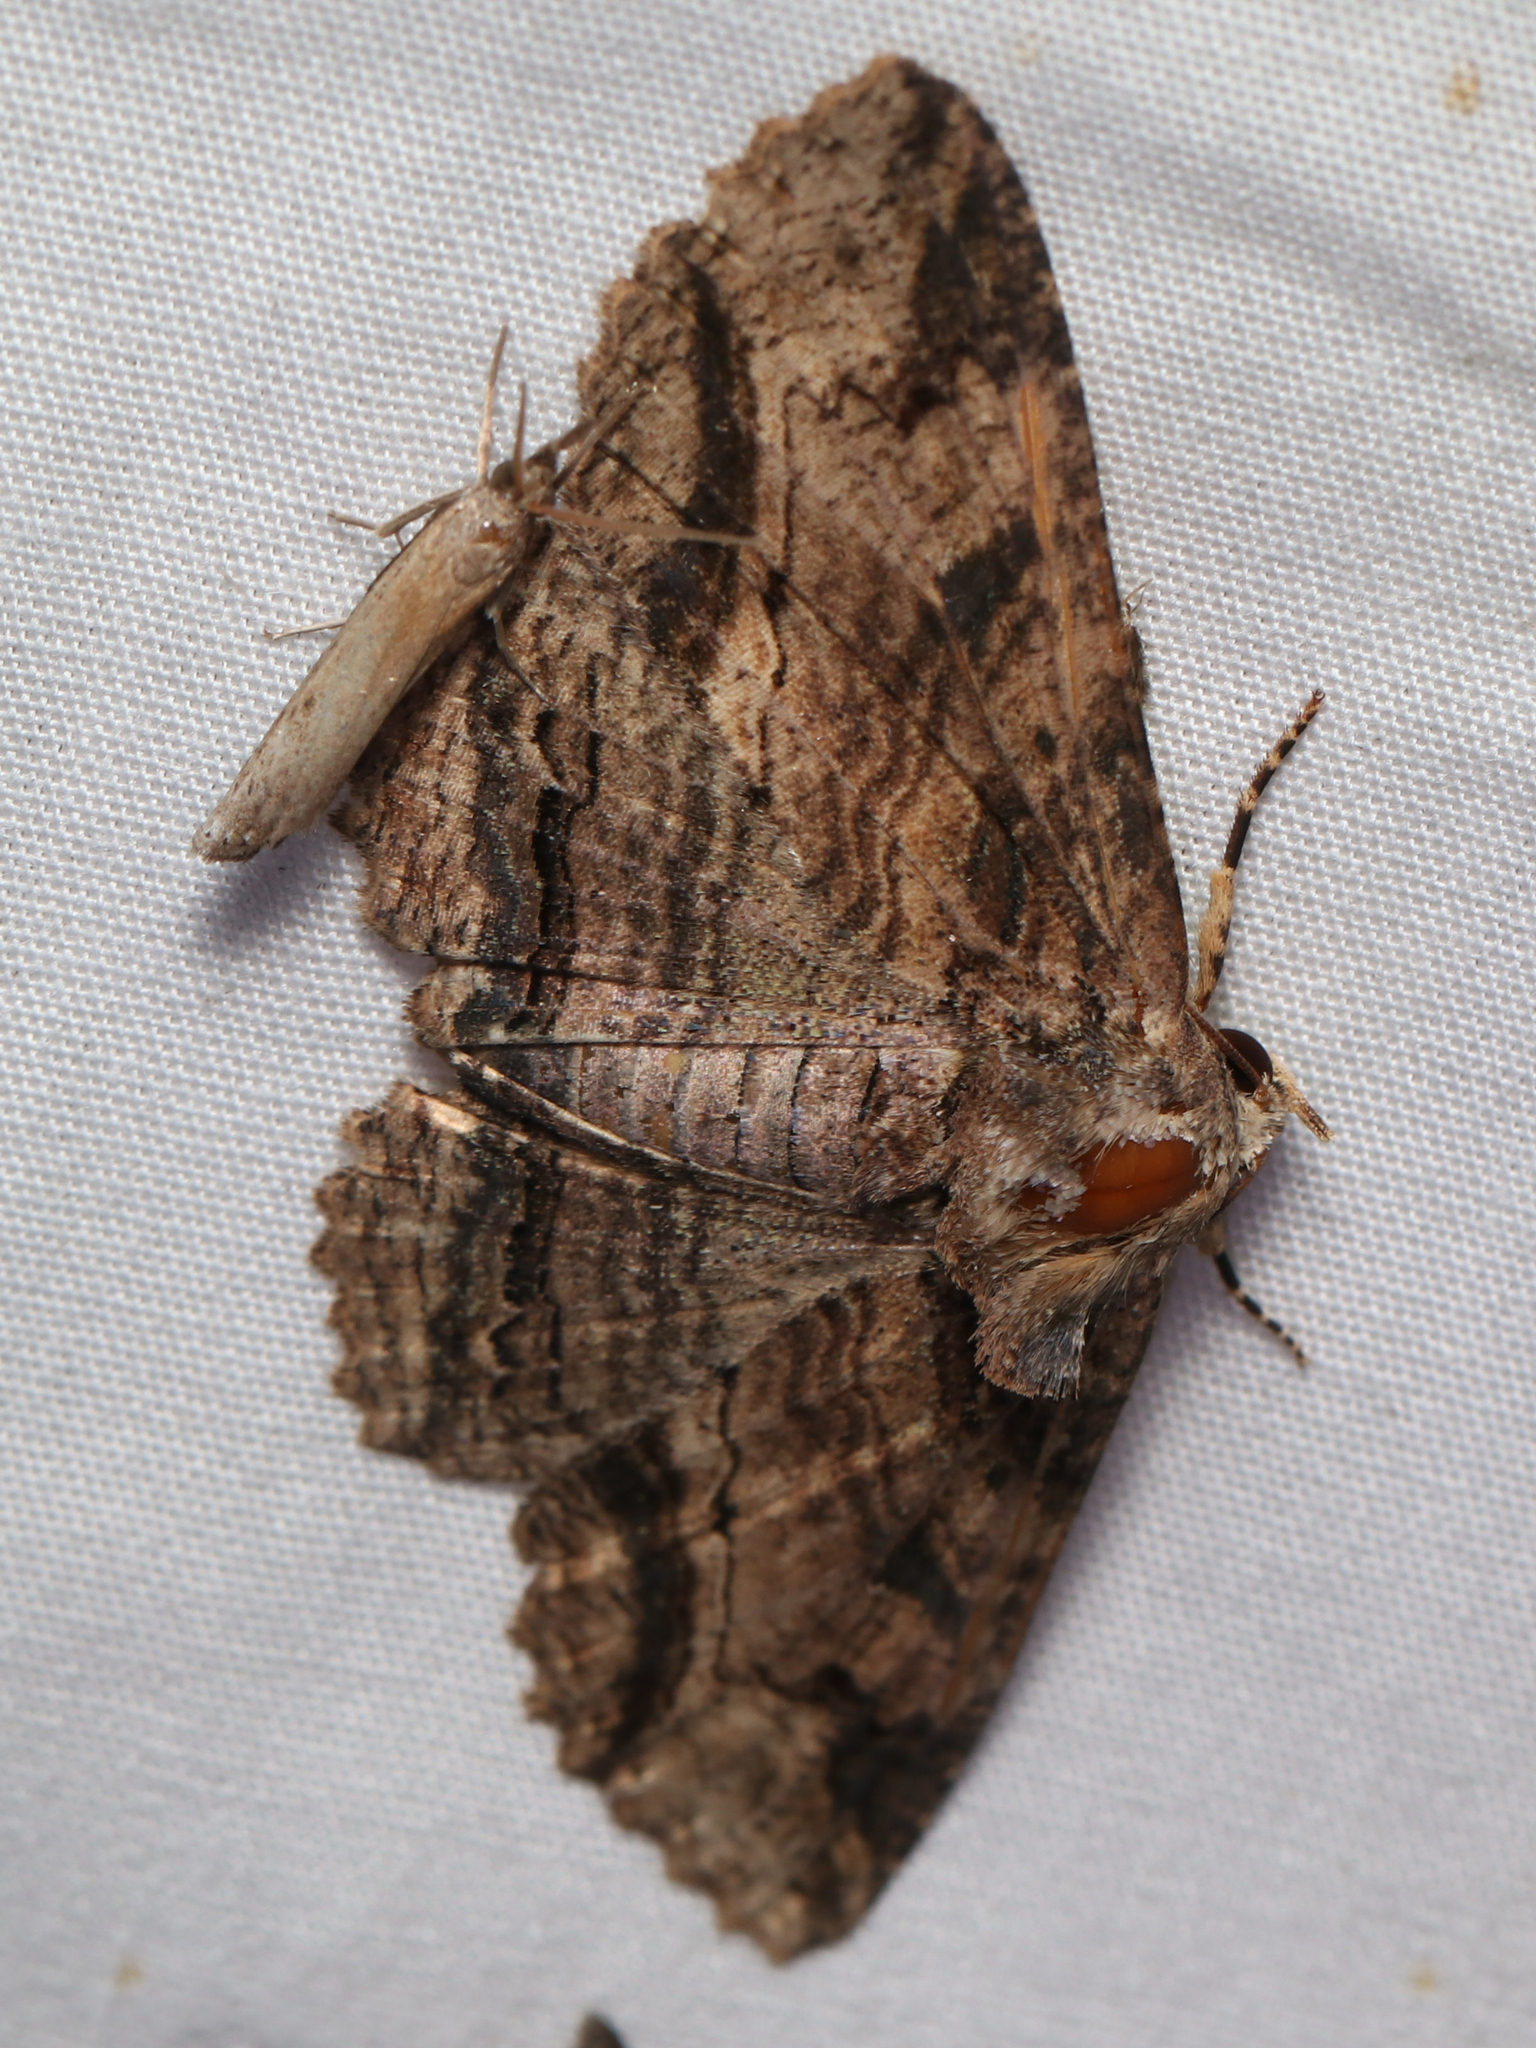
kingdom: Animalia
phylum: Arthropoda
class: Insecta
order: Lepidoptera
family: Erebidae
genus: Zale
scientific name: Zale lunata
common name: Lunate zale moth
